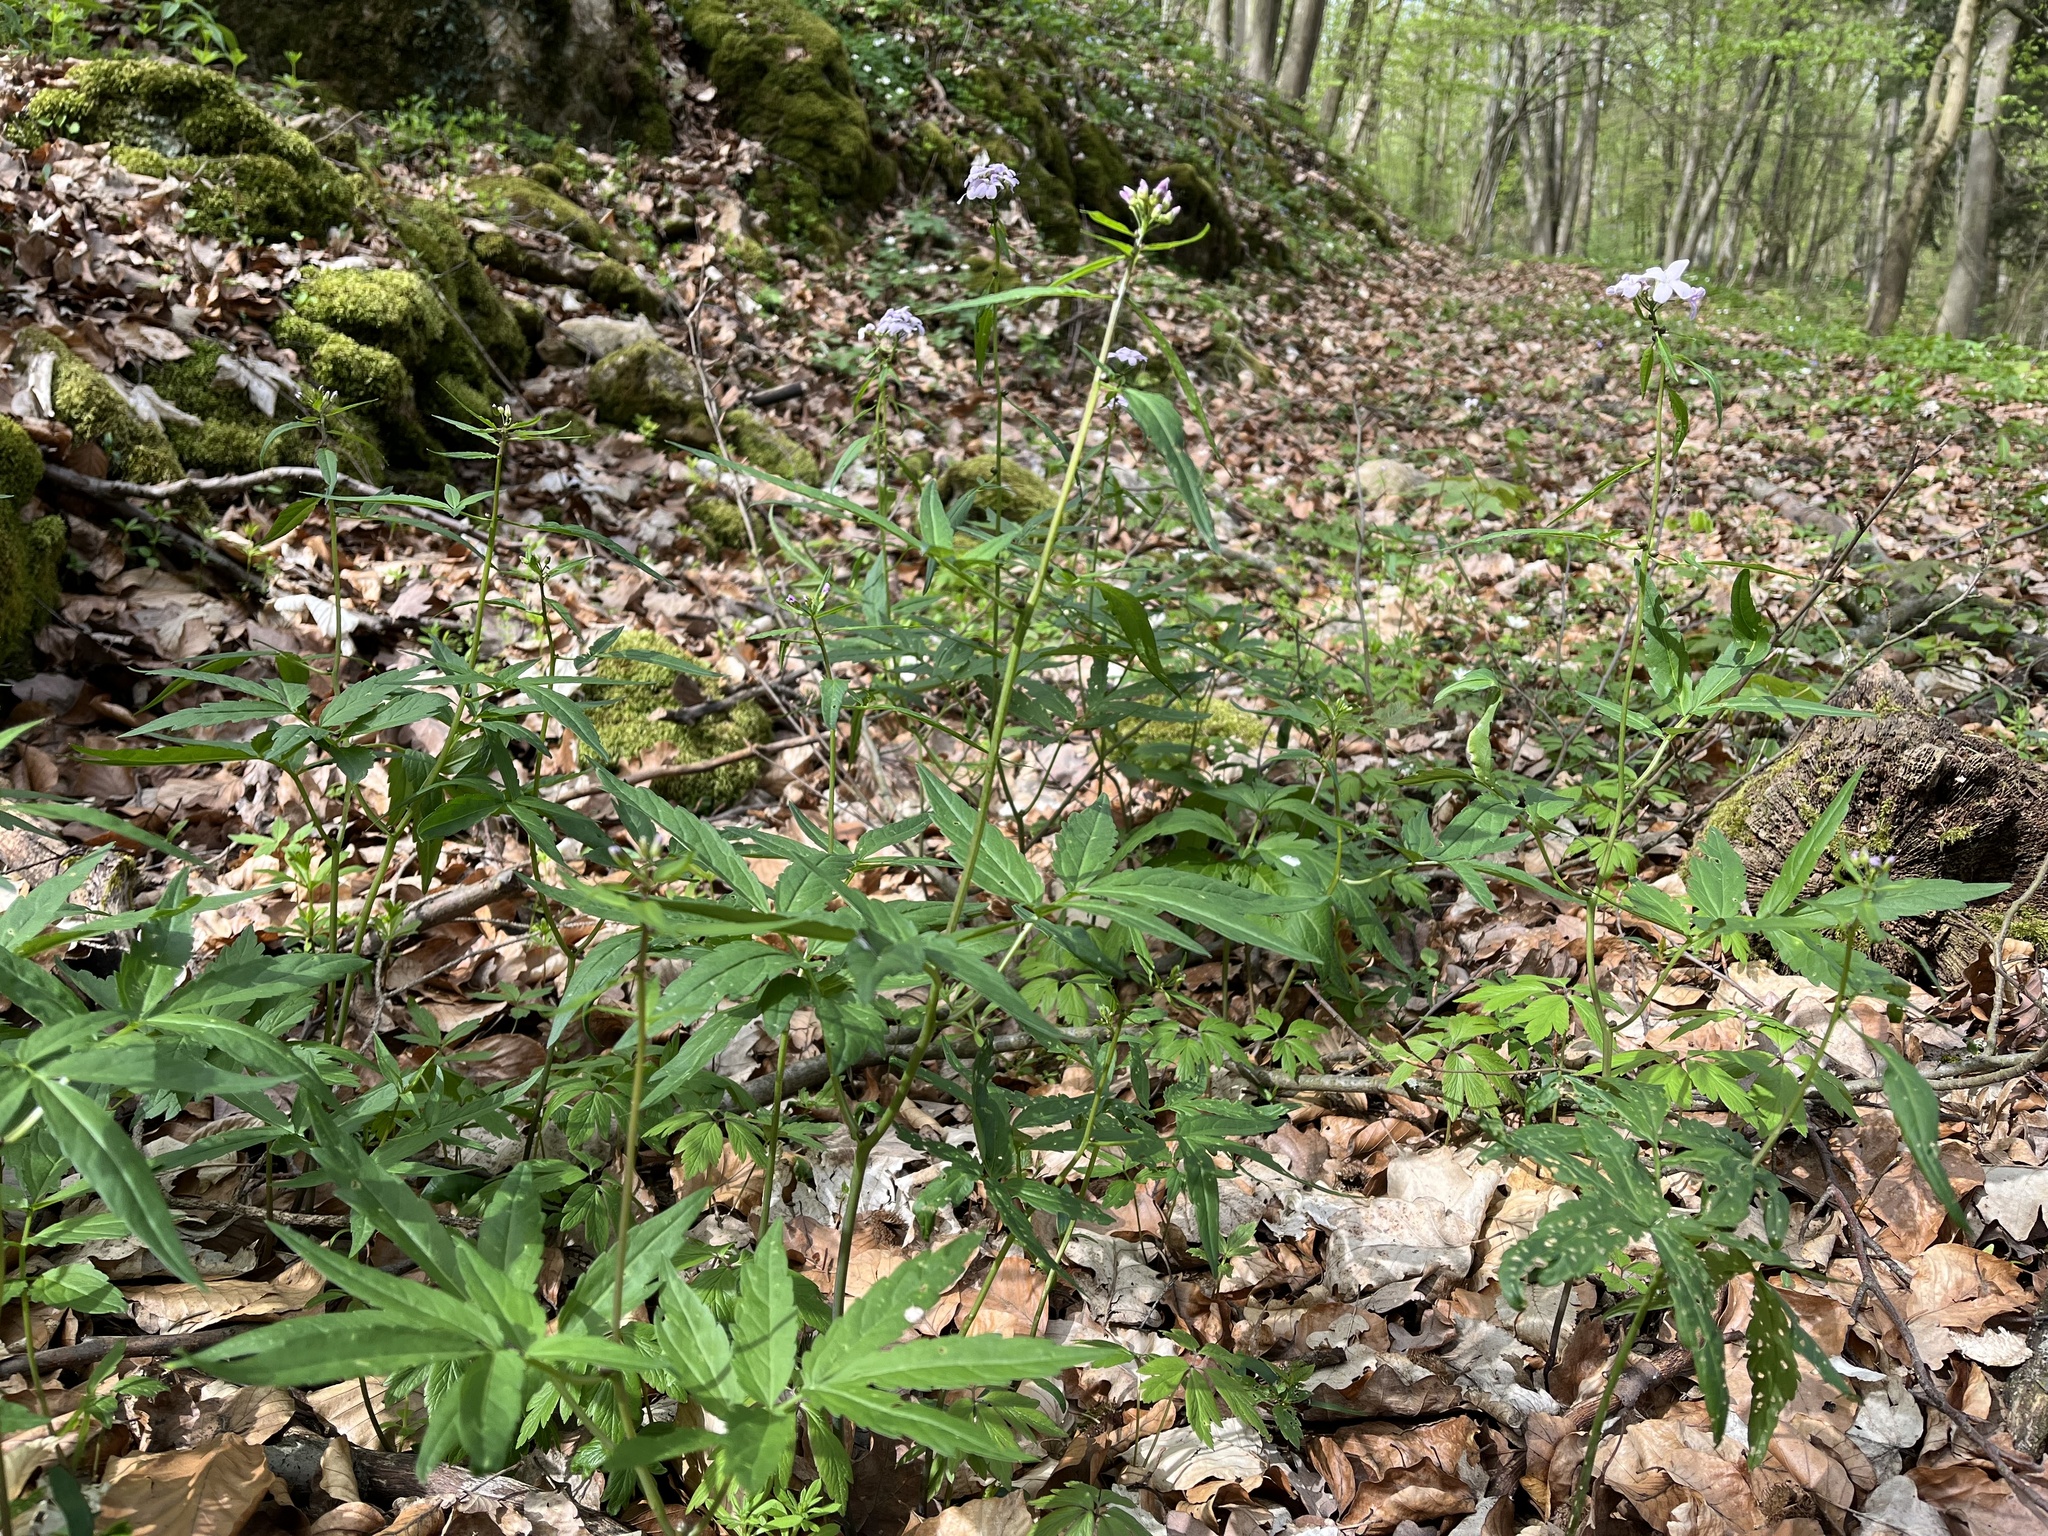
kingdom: Plantae
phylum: Tracheophyta
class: Magnoliopsida
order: Brassicales
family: Brassicaceae
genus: Cardamine
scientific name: Cardamine bulbifera
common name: Coralroot bittercress
